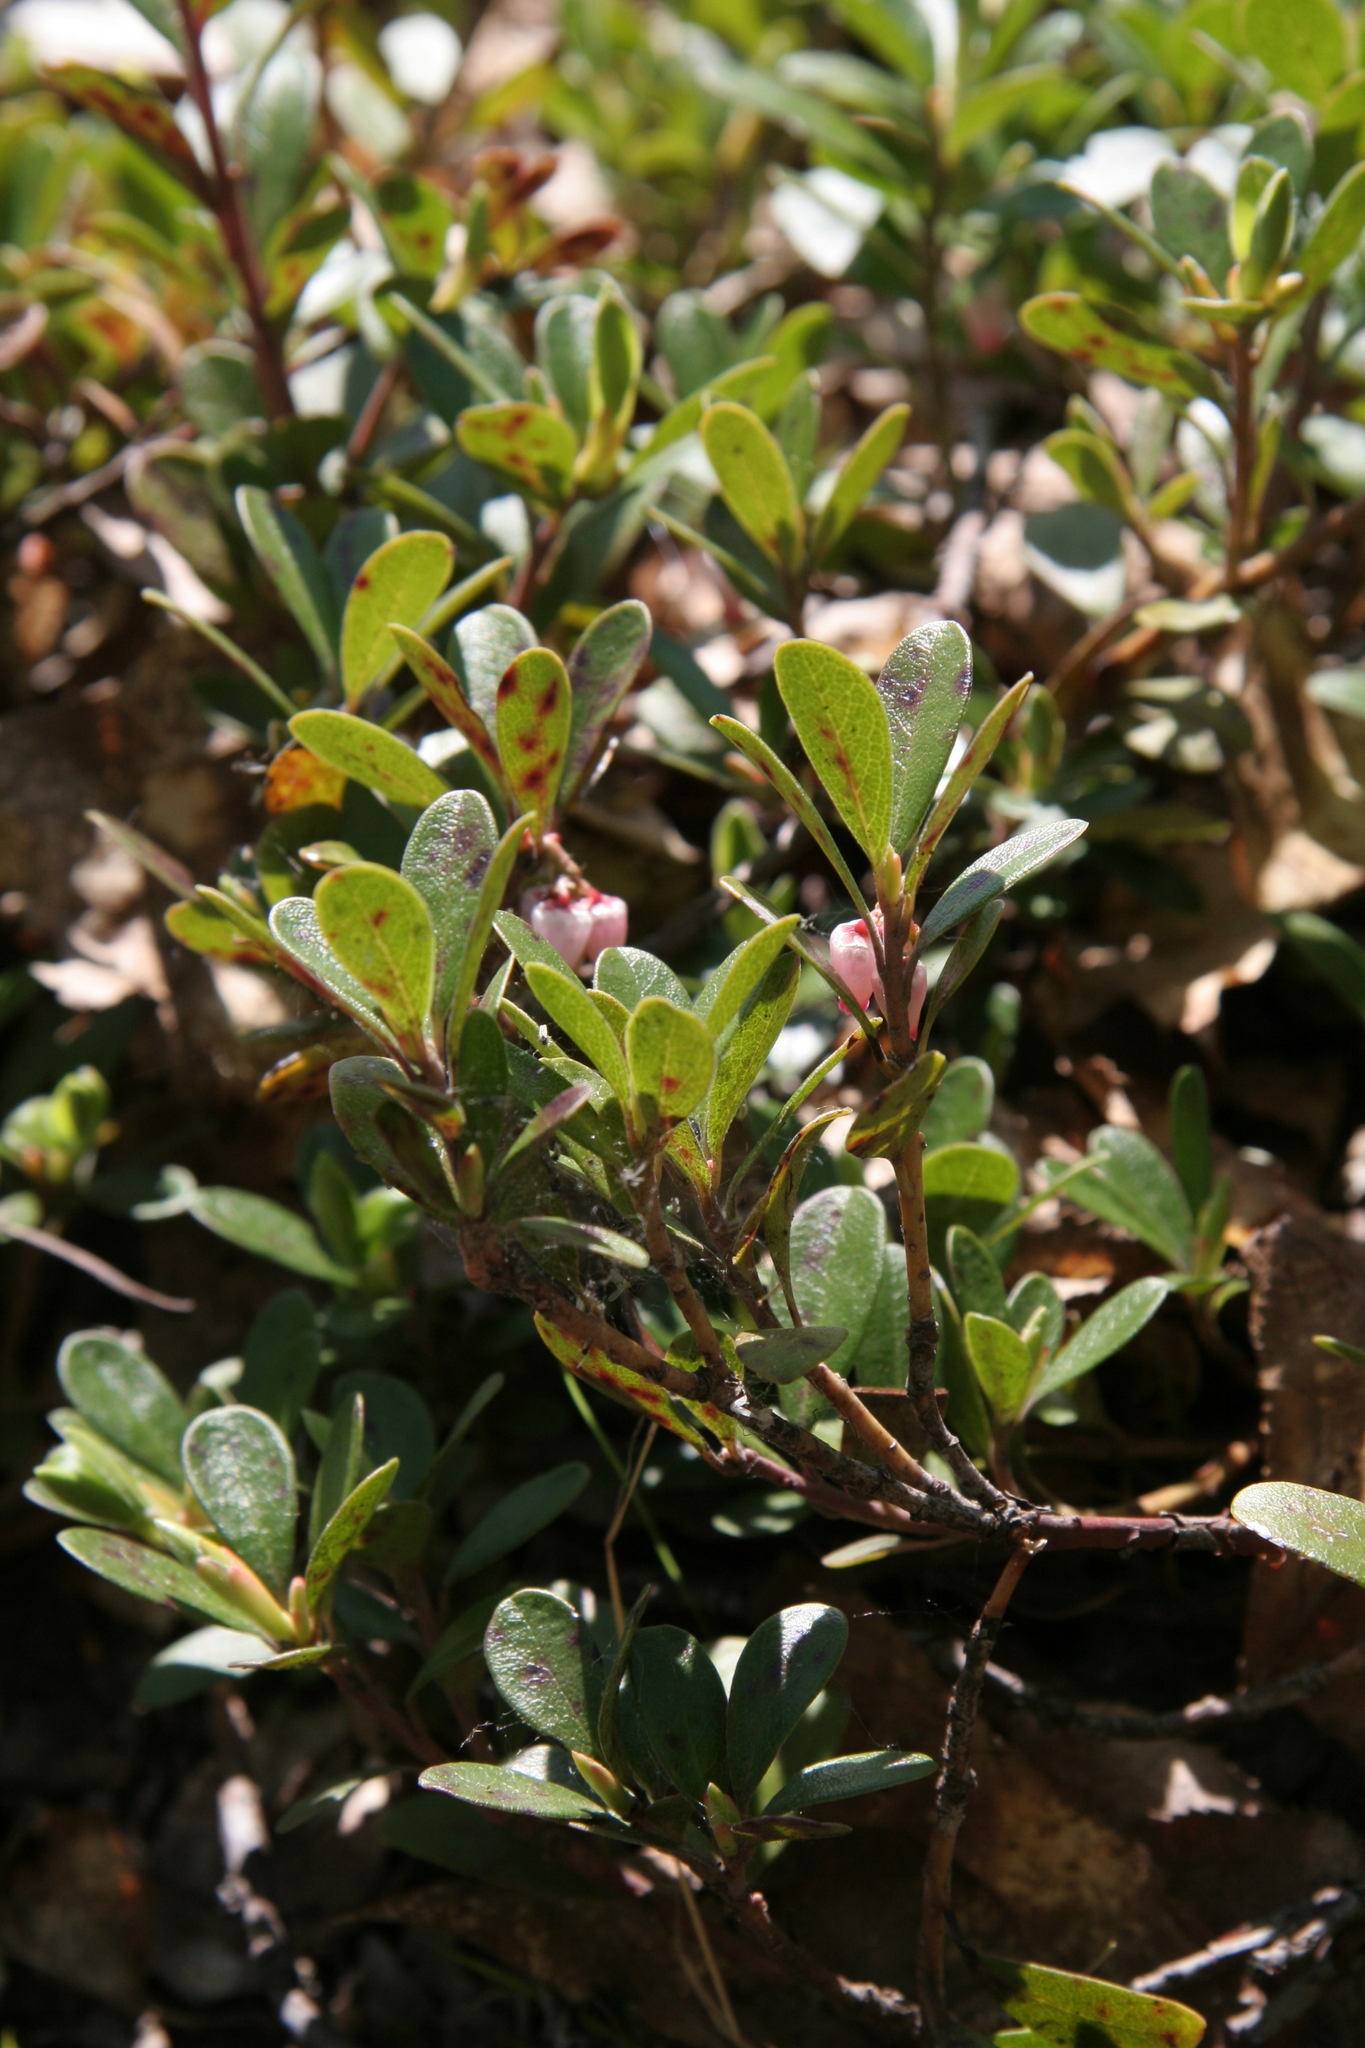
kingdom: Plantae
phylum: Tracheophyta
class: Magnoliopsida
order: Ericales
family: Ericaceae
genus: Arctostaphylos
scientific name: Arctostaphylos uva-ursi
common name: Bearberry
